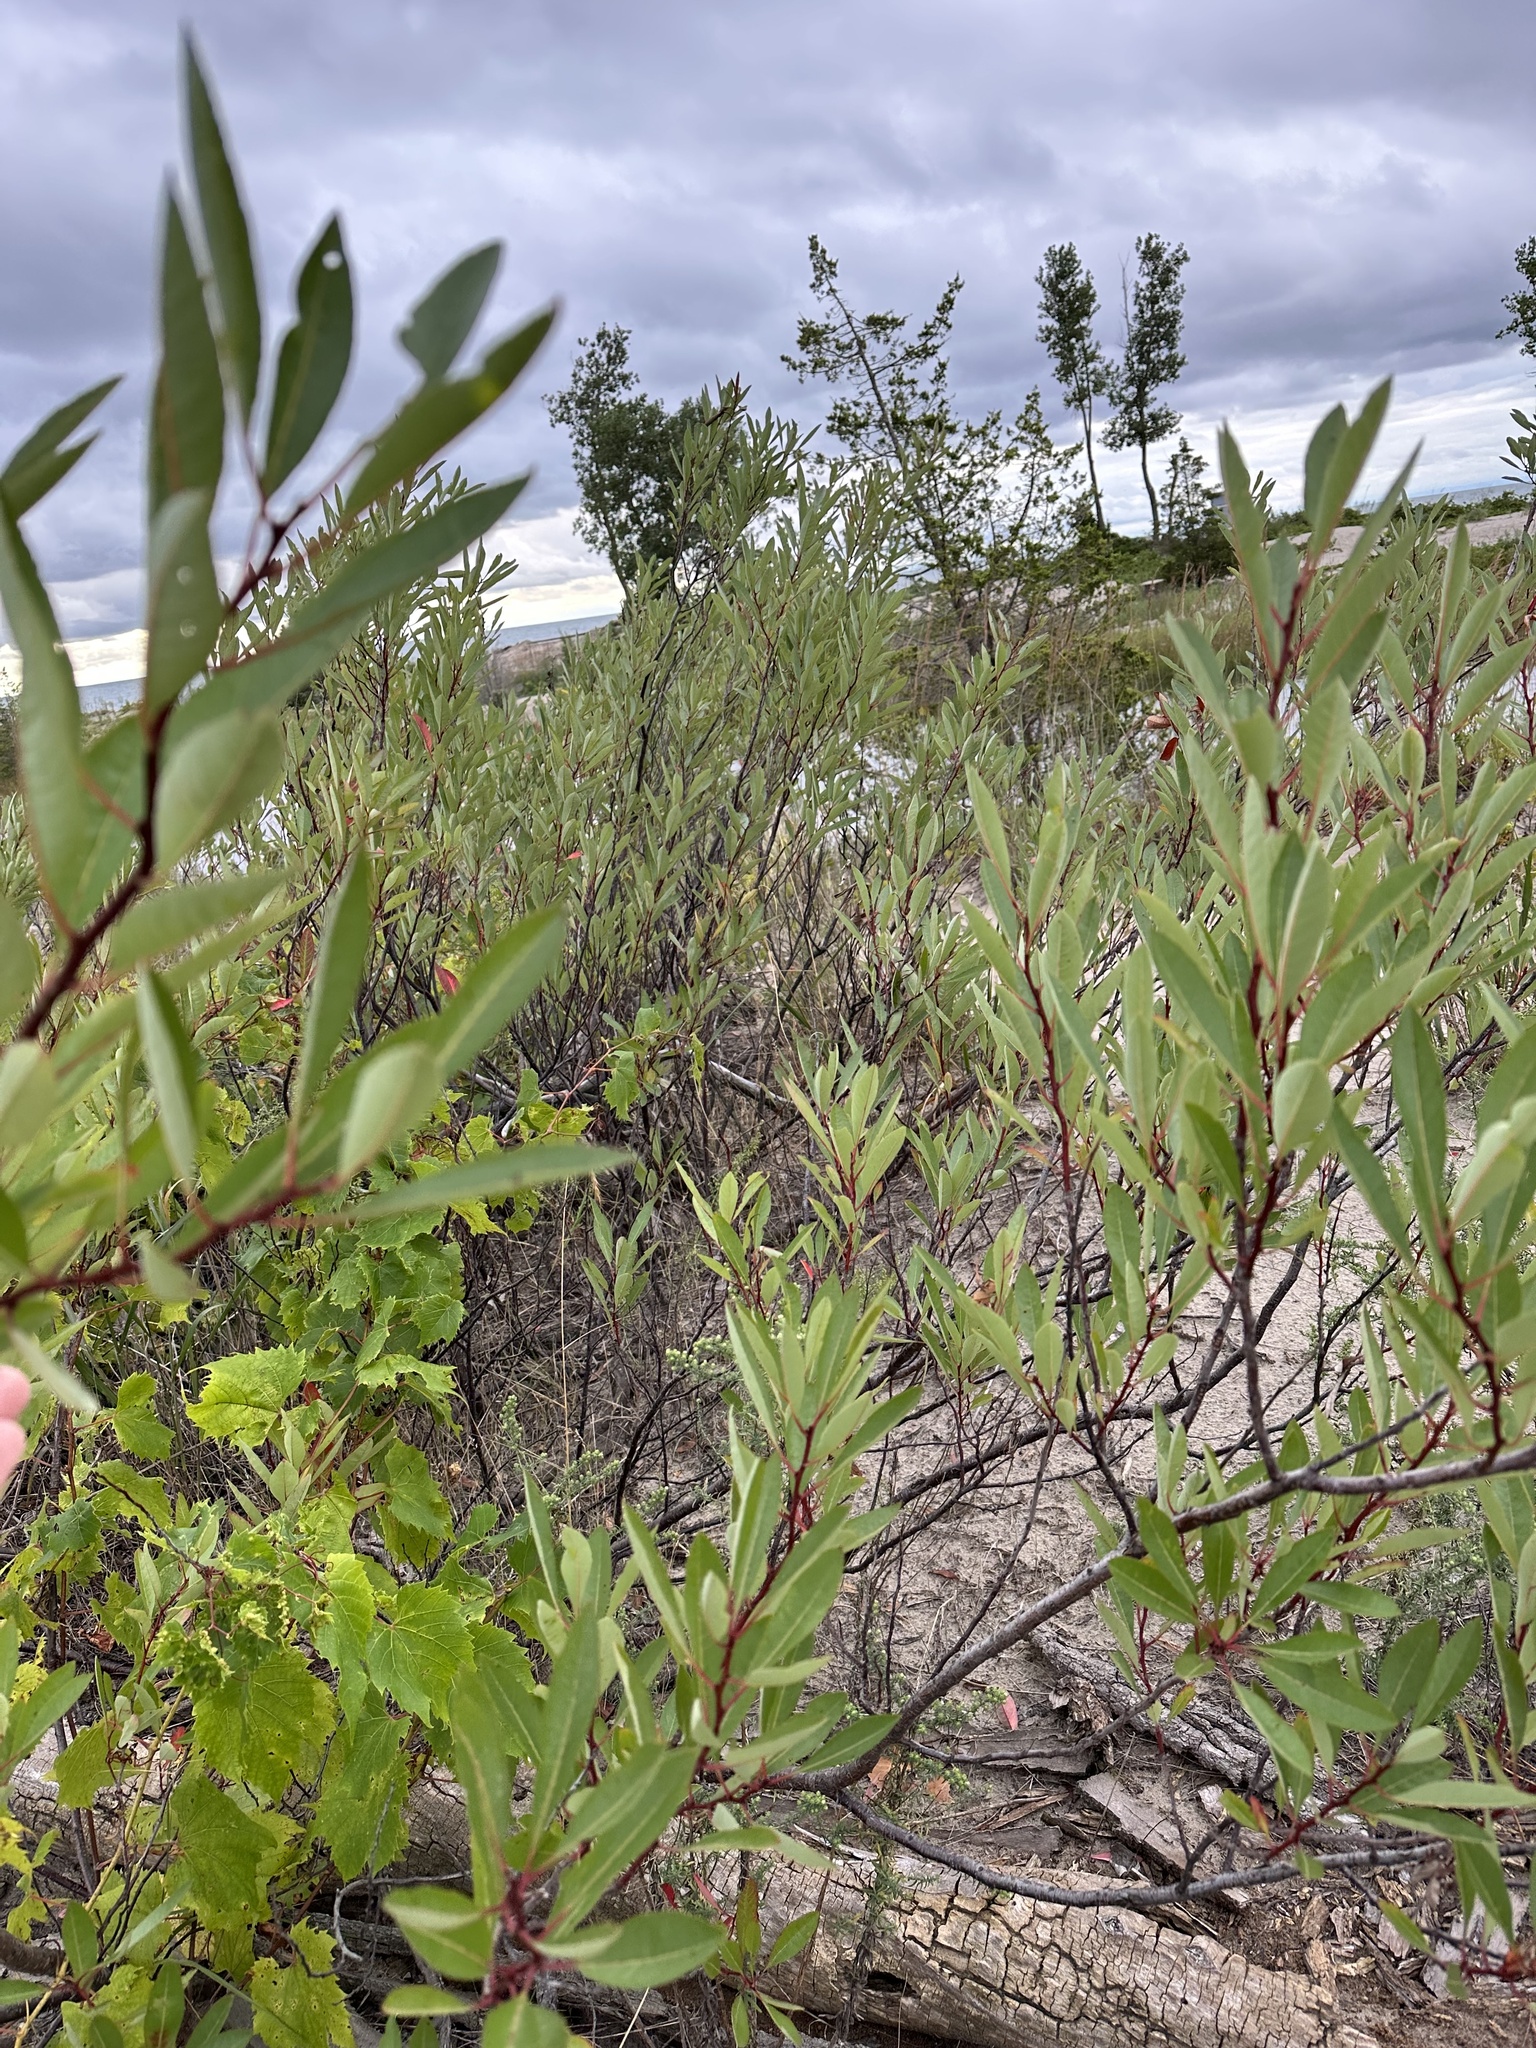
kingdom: Plantae
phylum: Tracheophyta
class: Magnoliopsida
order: Rosales
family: Rosaceae
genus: Prunus
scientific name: Prunus pumila
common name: Dwarf cherry
